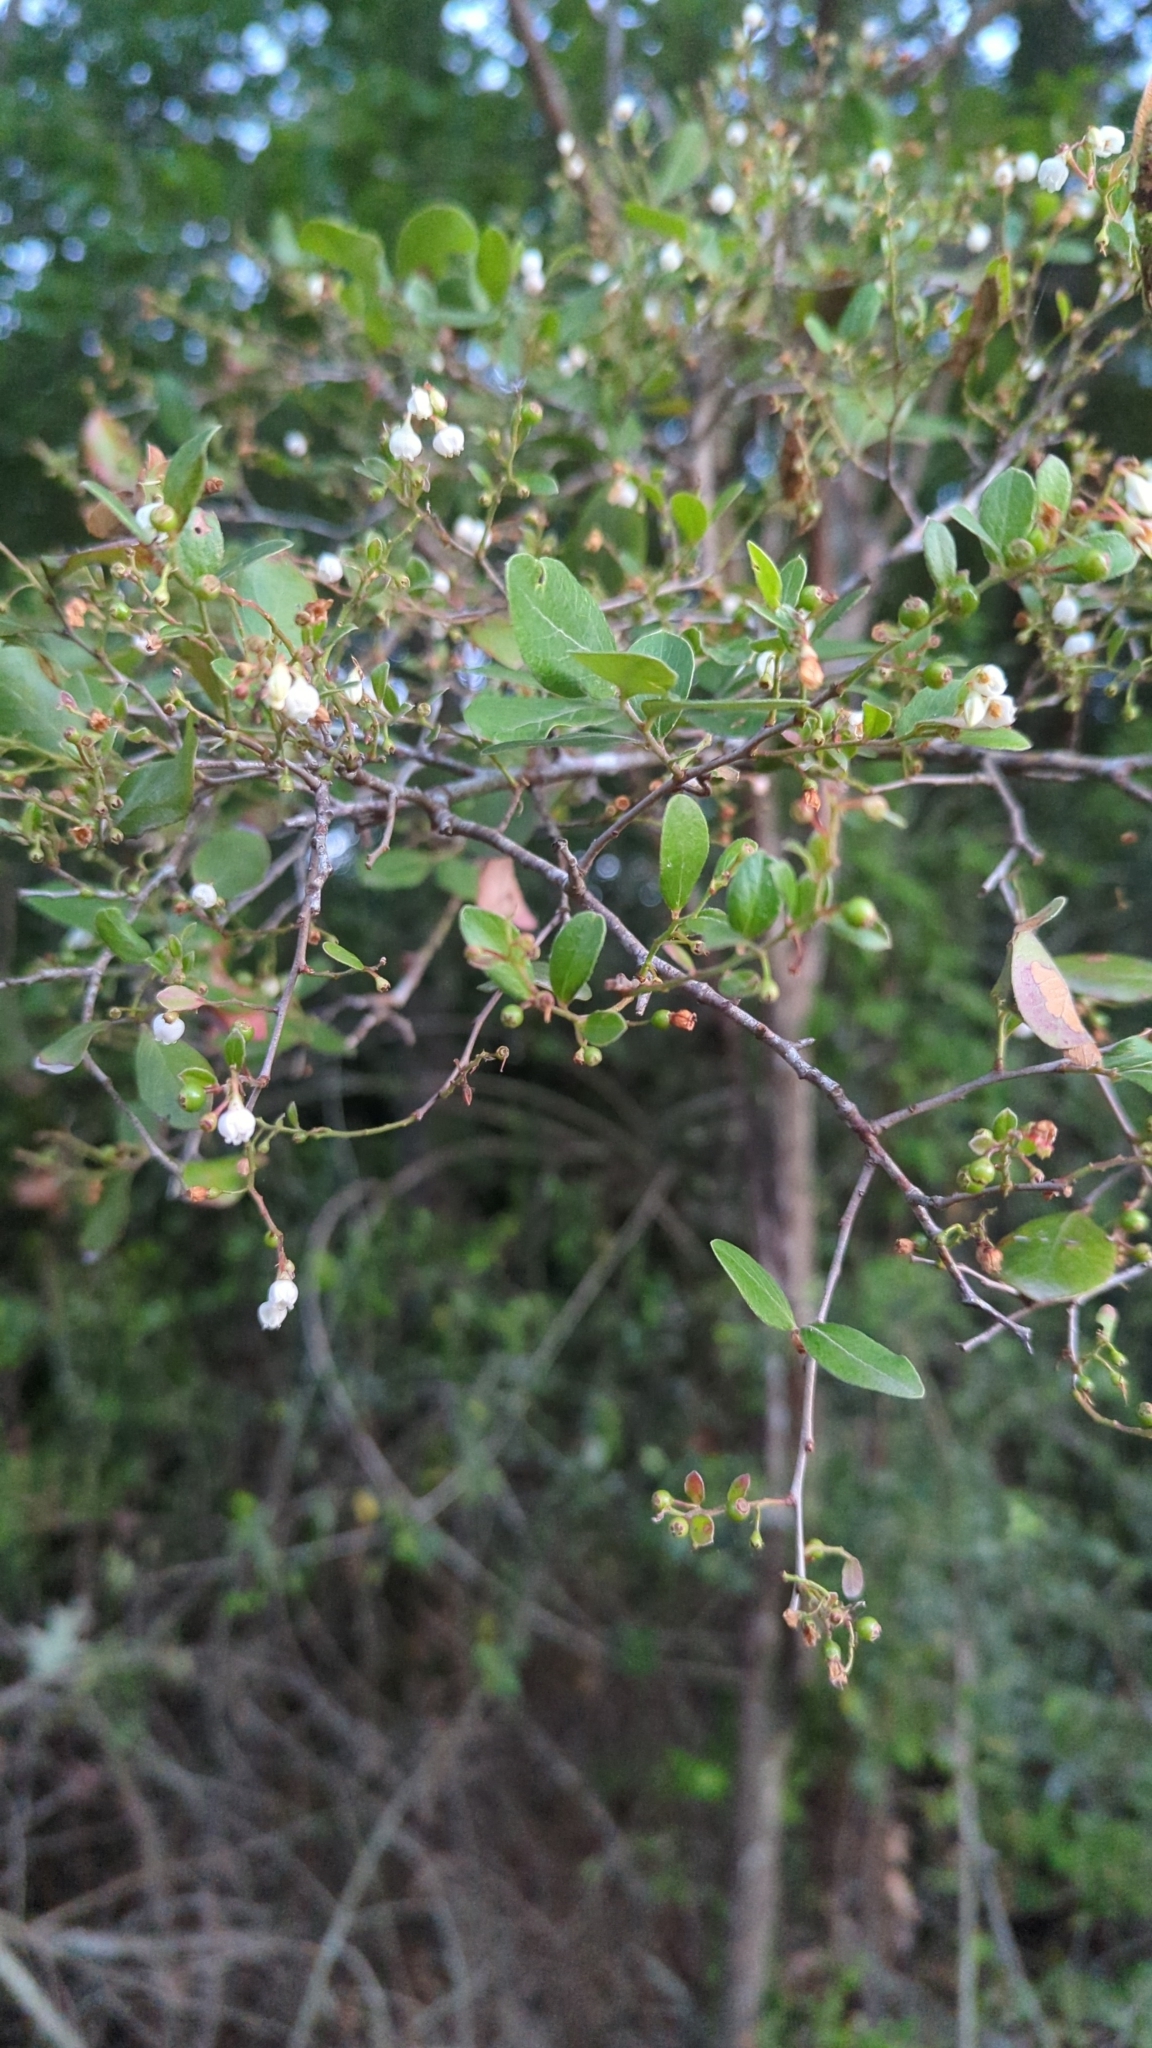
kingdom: Plantae
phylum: Tracheophyta
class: Magnoliopsida
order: Ericales
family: Ericaceae
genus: Vaccinium
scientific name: Vaccinium arboreum
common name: Farkleberry
